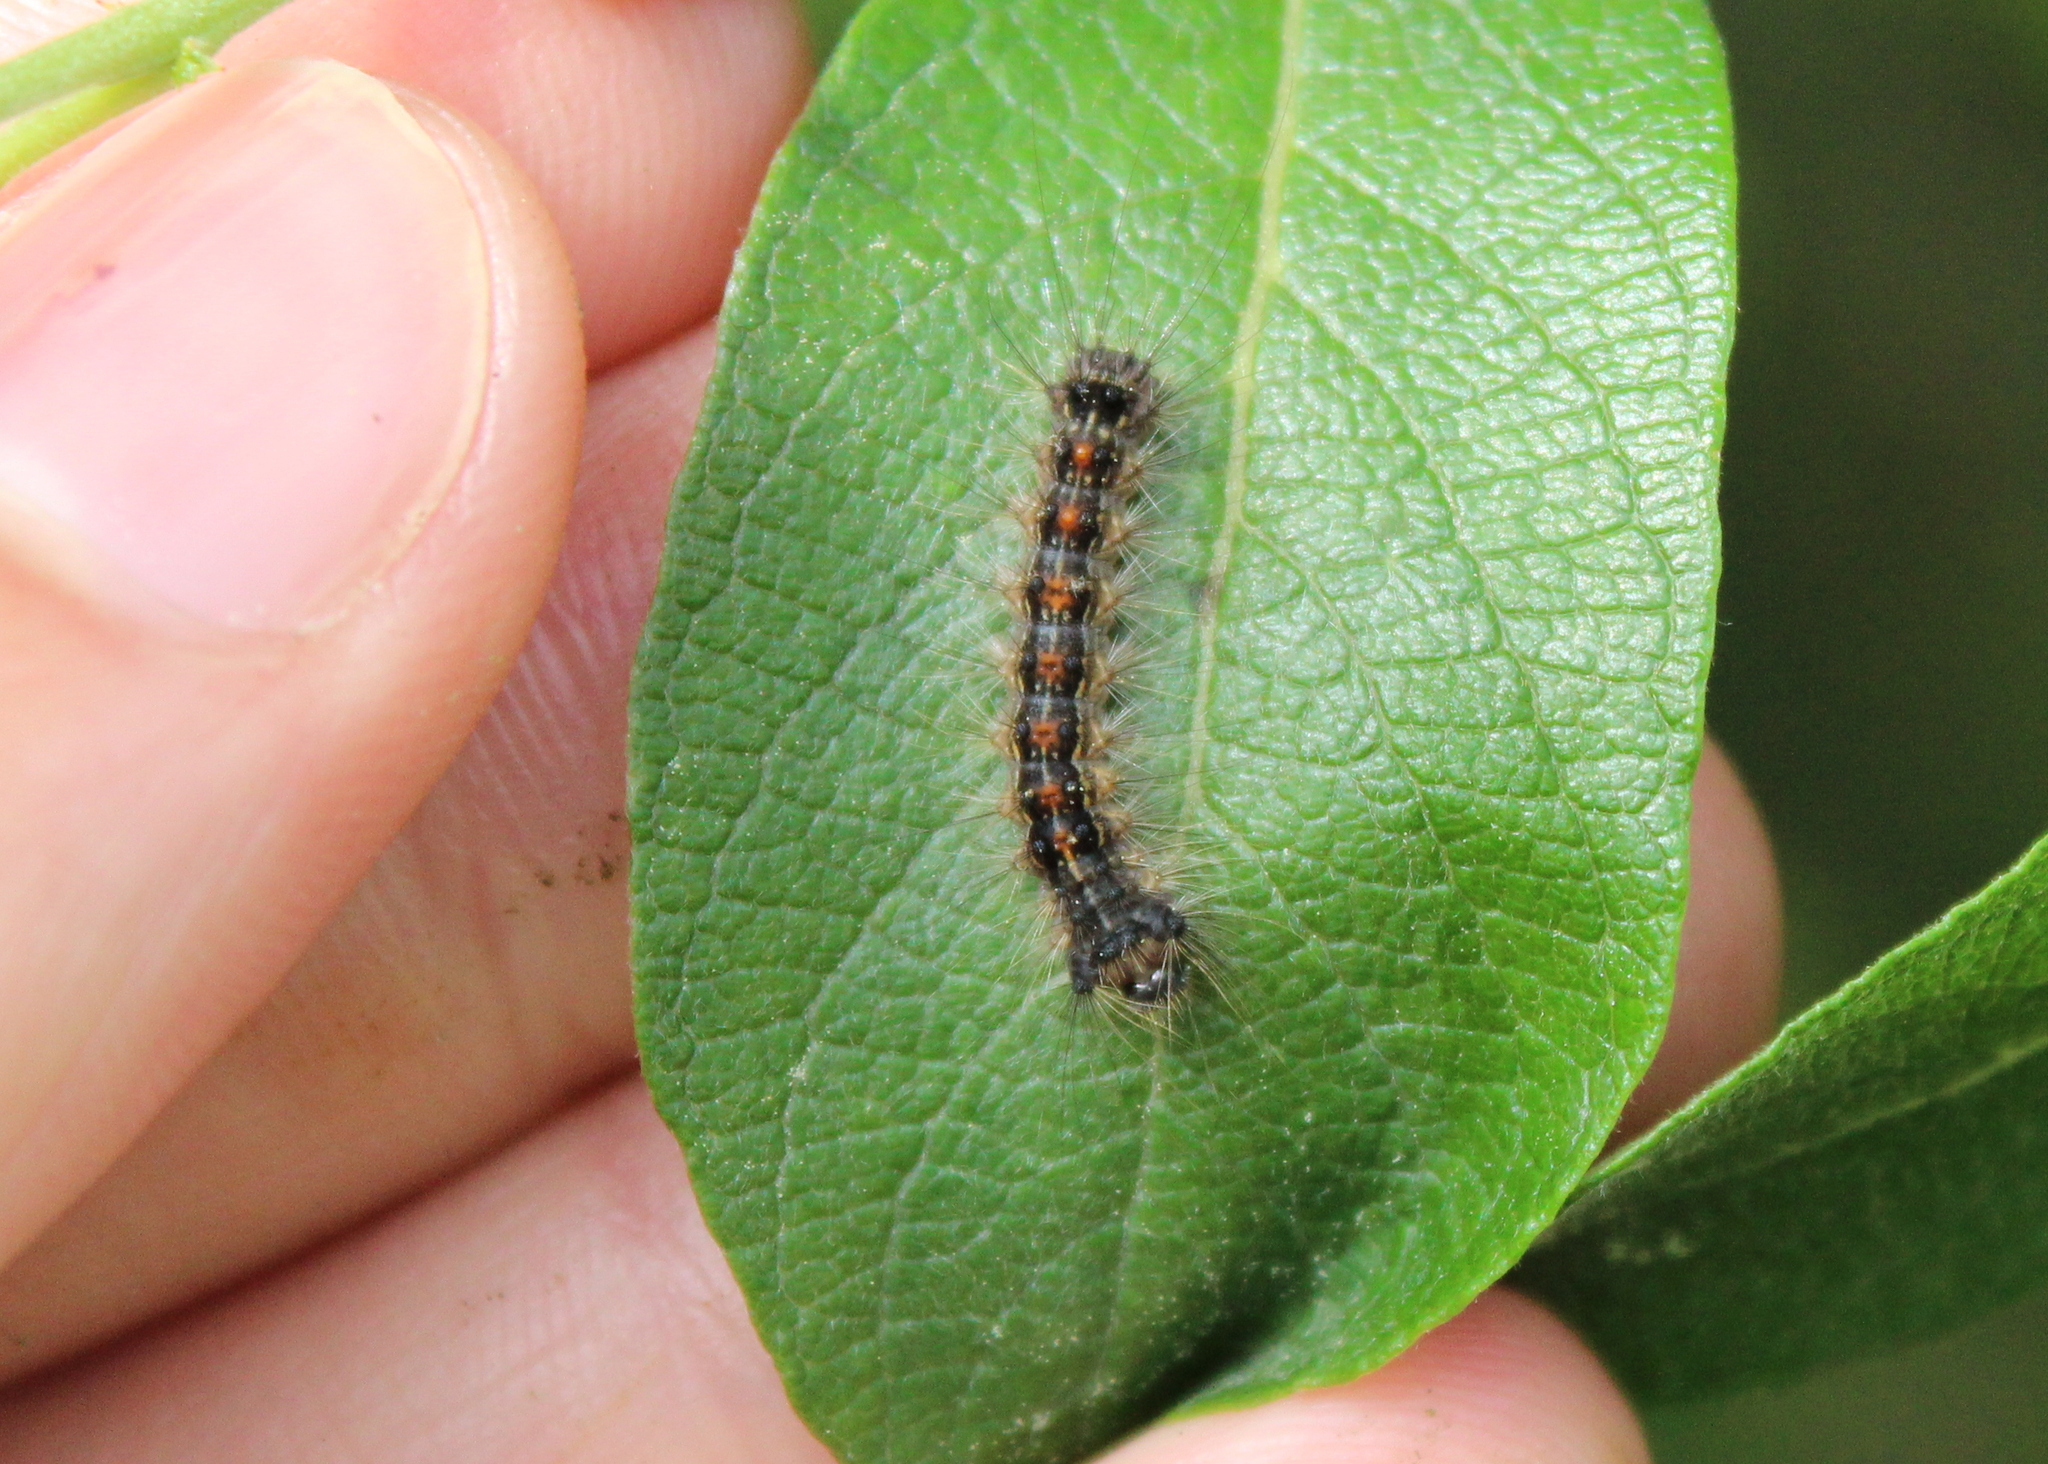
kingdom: Animalia
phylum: Arthropoda
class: Insecta
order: Lepidoptera
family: Erebidae
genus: Lymantria
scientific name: Lymantria dispar
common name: Gypsy moth
